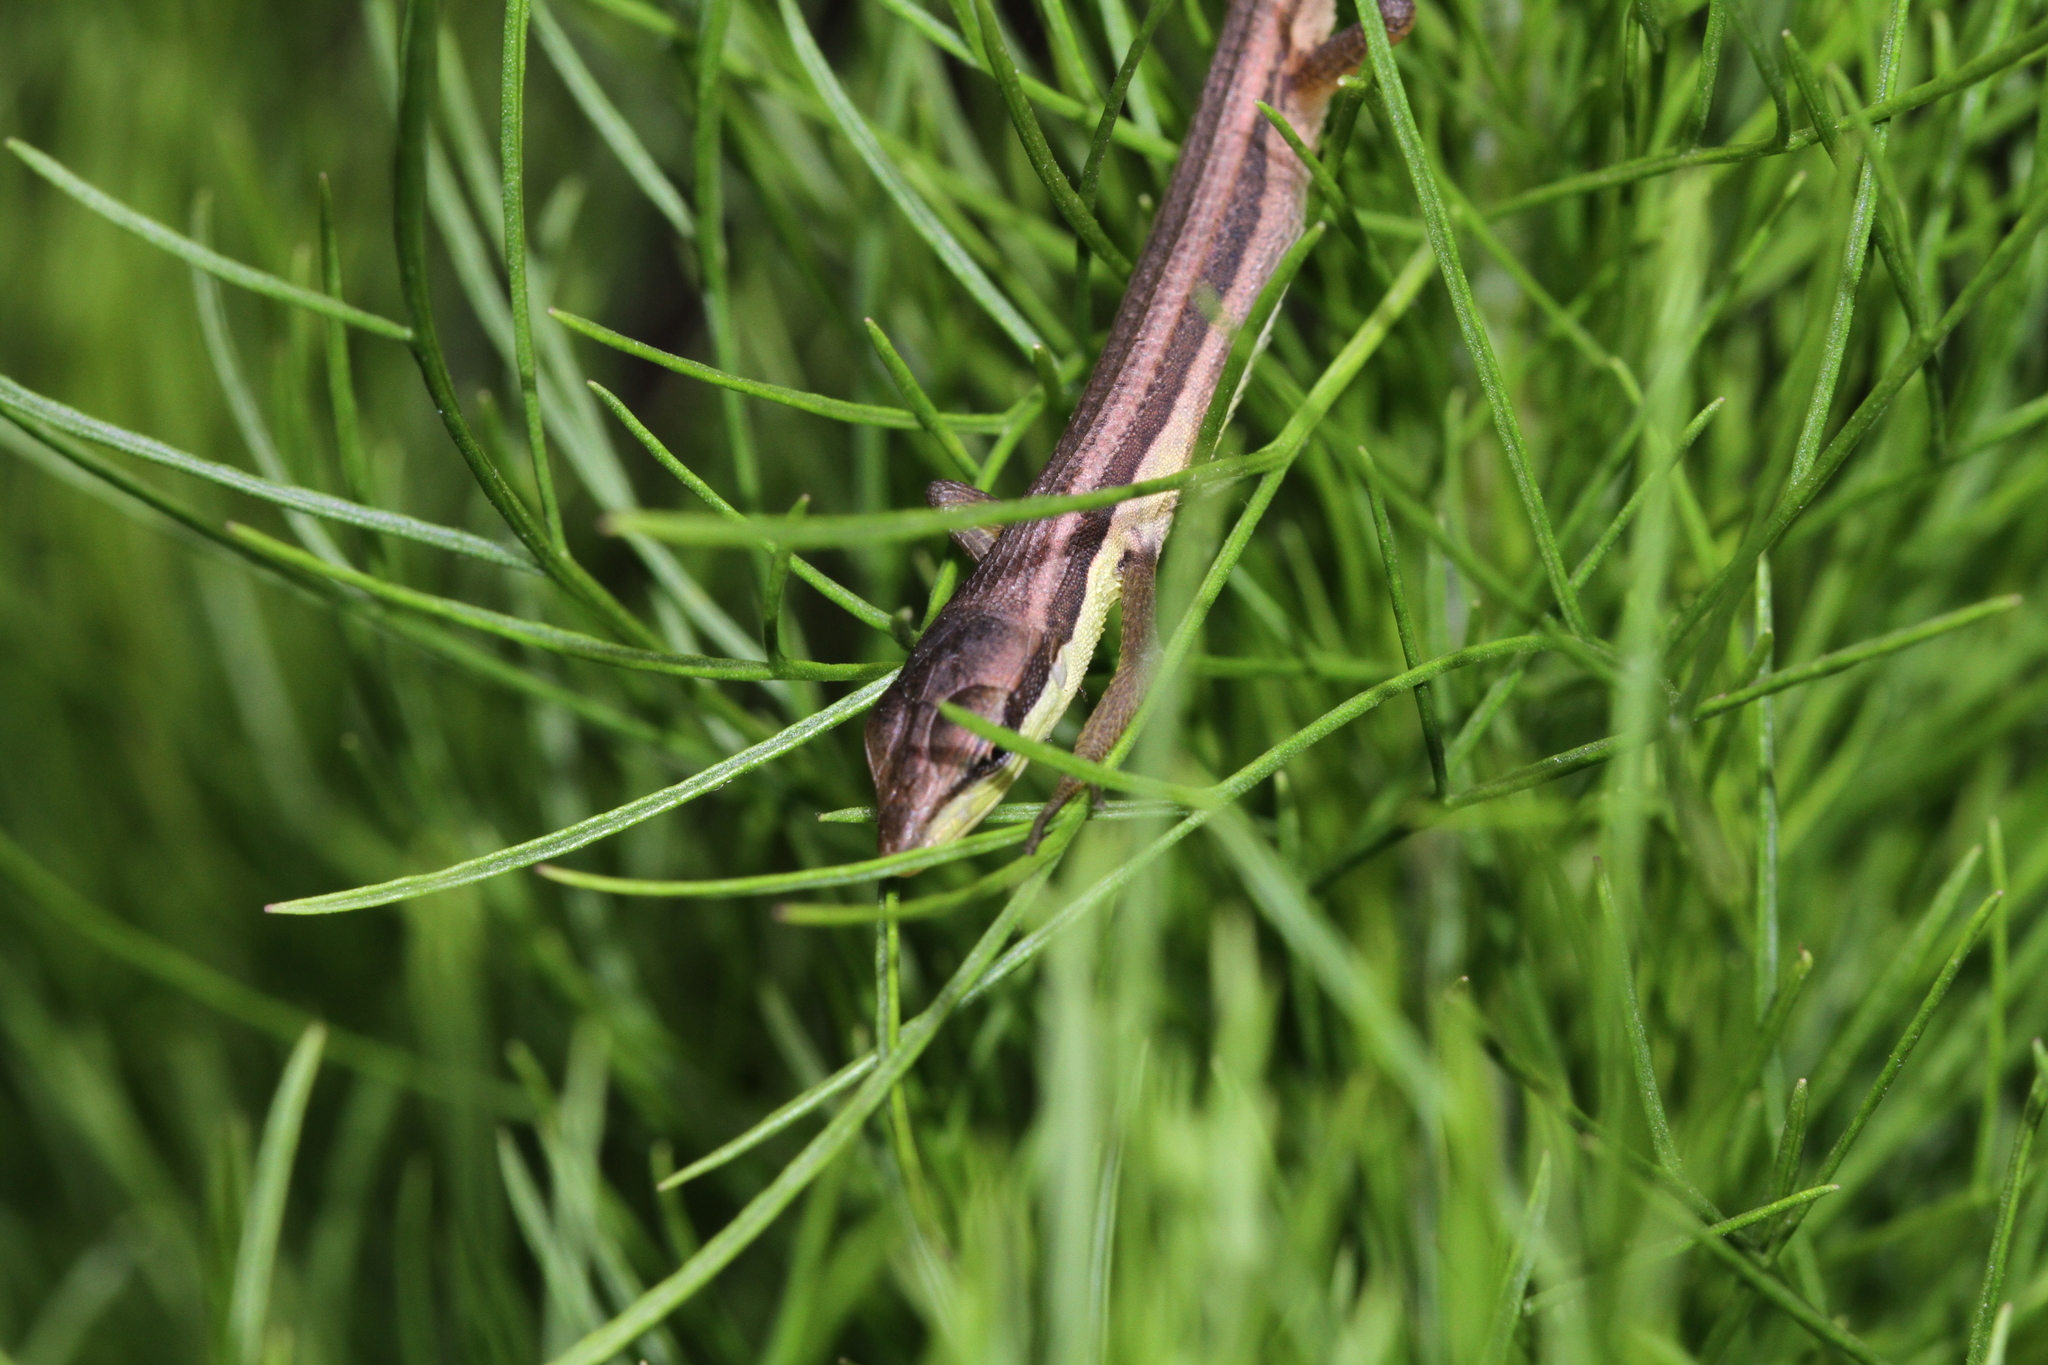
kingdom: Animalia
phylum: Chordata
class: Squamata
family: Lacertidae
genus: Takydromus
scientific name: Takydromus sexlineatus
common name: Asian grass lizard
